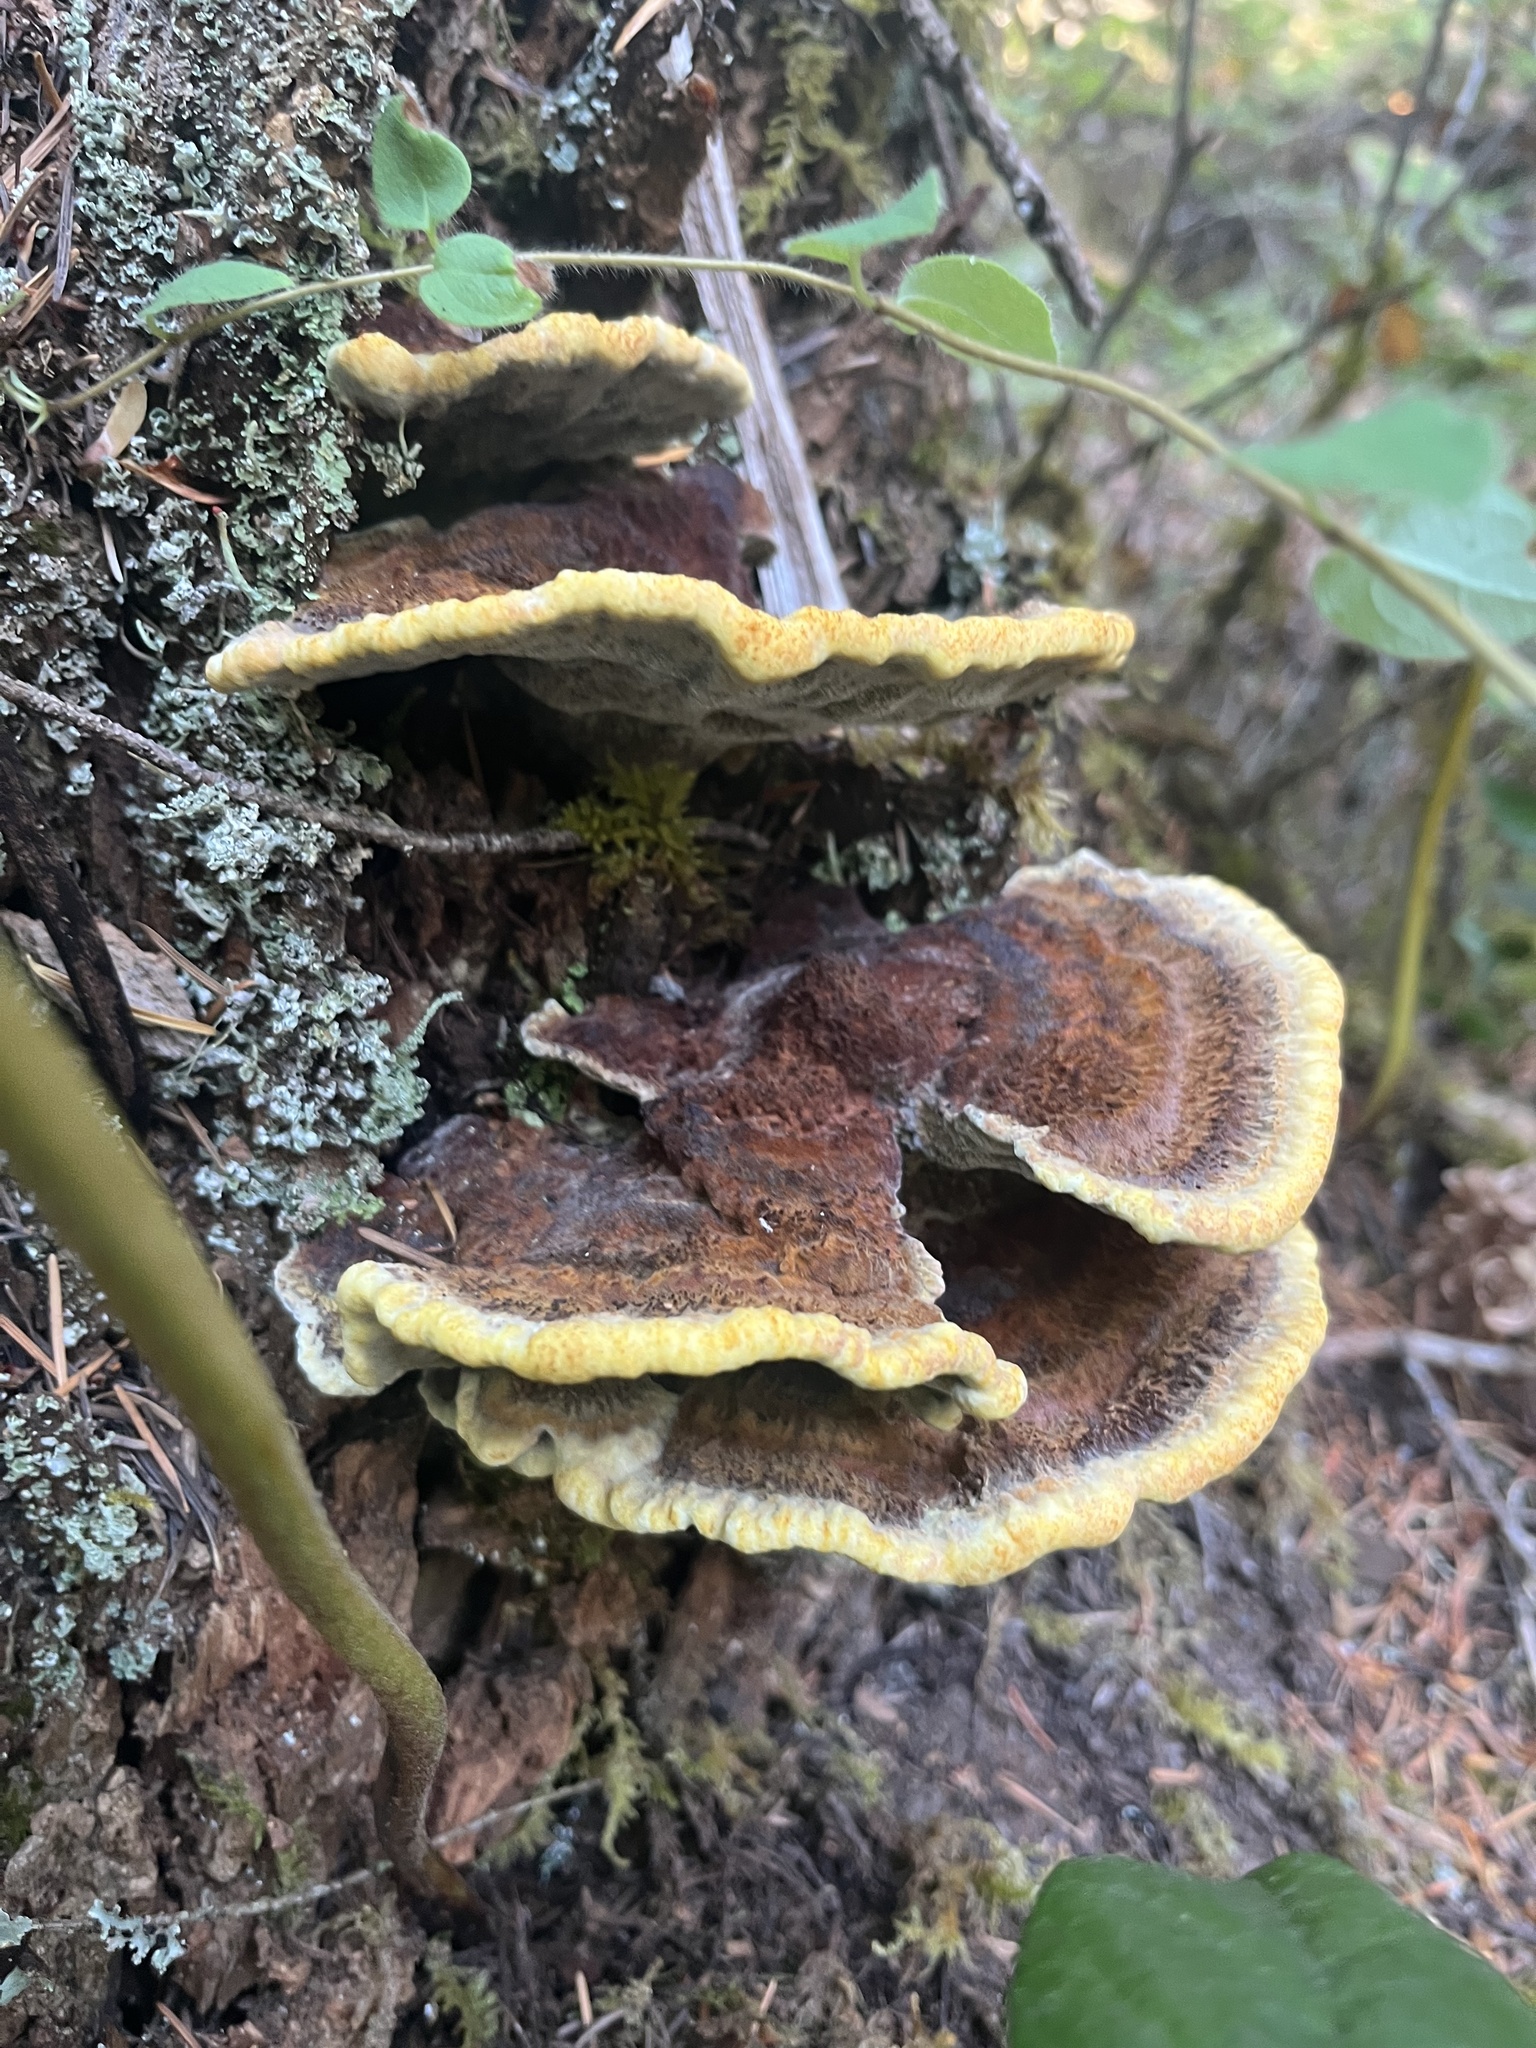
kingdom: Fungi
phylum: Basidiomycota
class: Agaricomycetes
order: Polyporales
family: Laetiporaceae
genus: Phaeolus
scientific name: Phaeolus schweinitzii
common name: Dyer's mazegill
